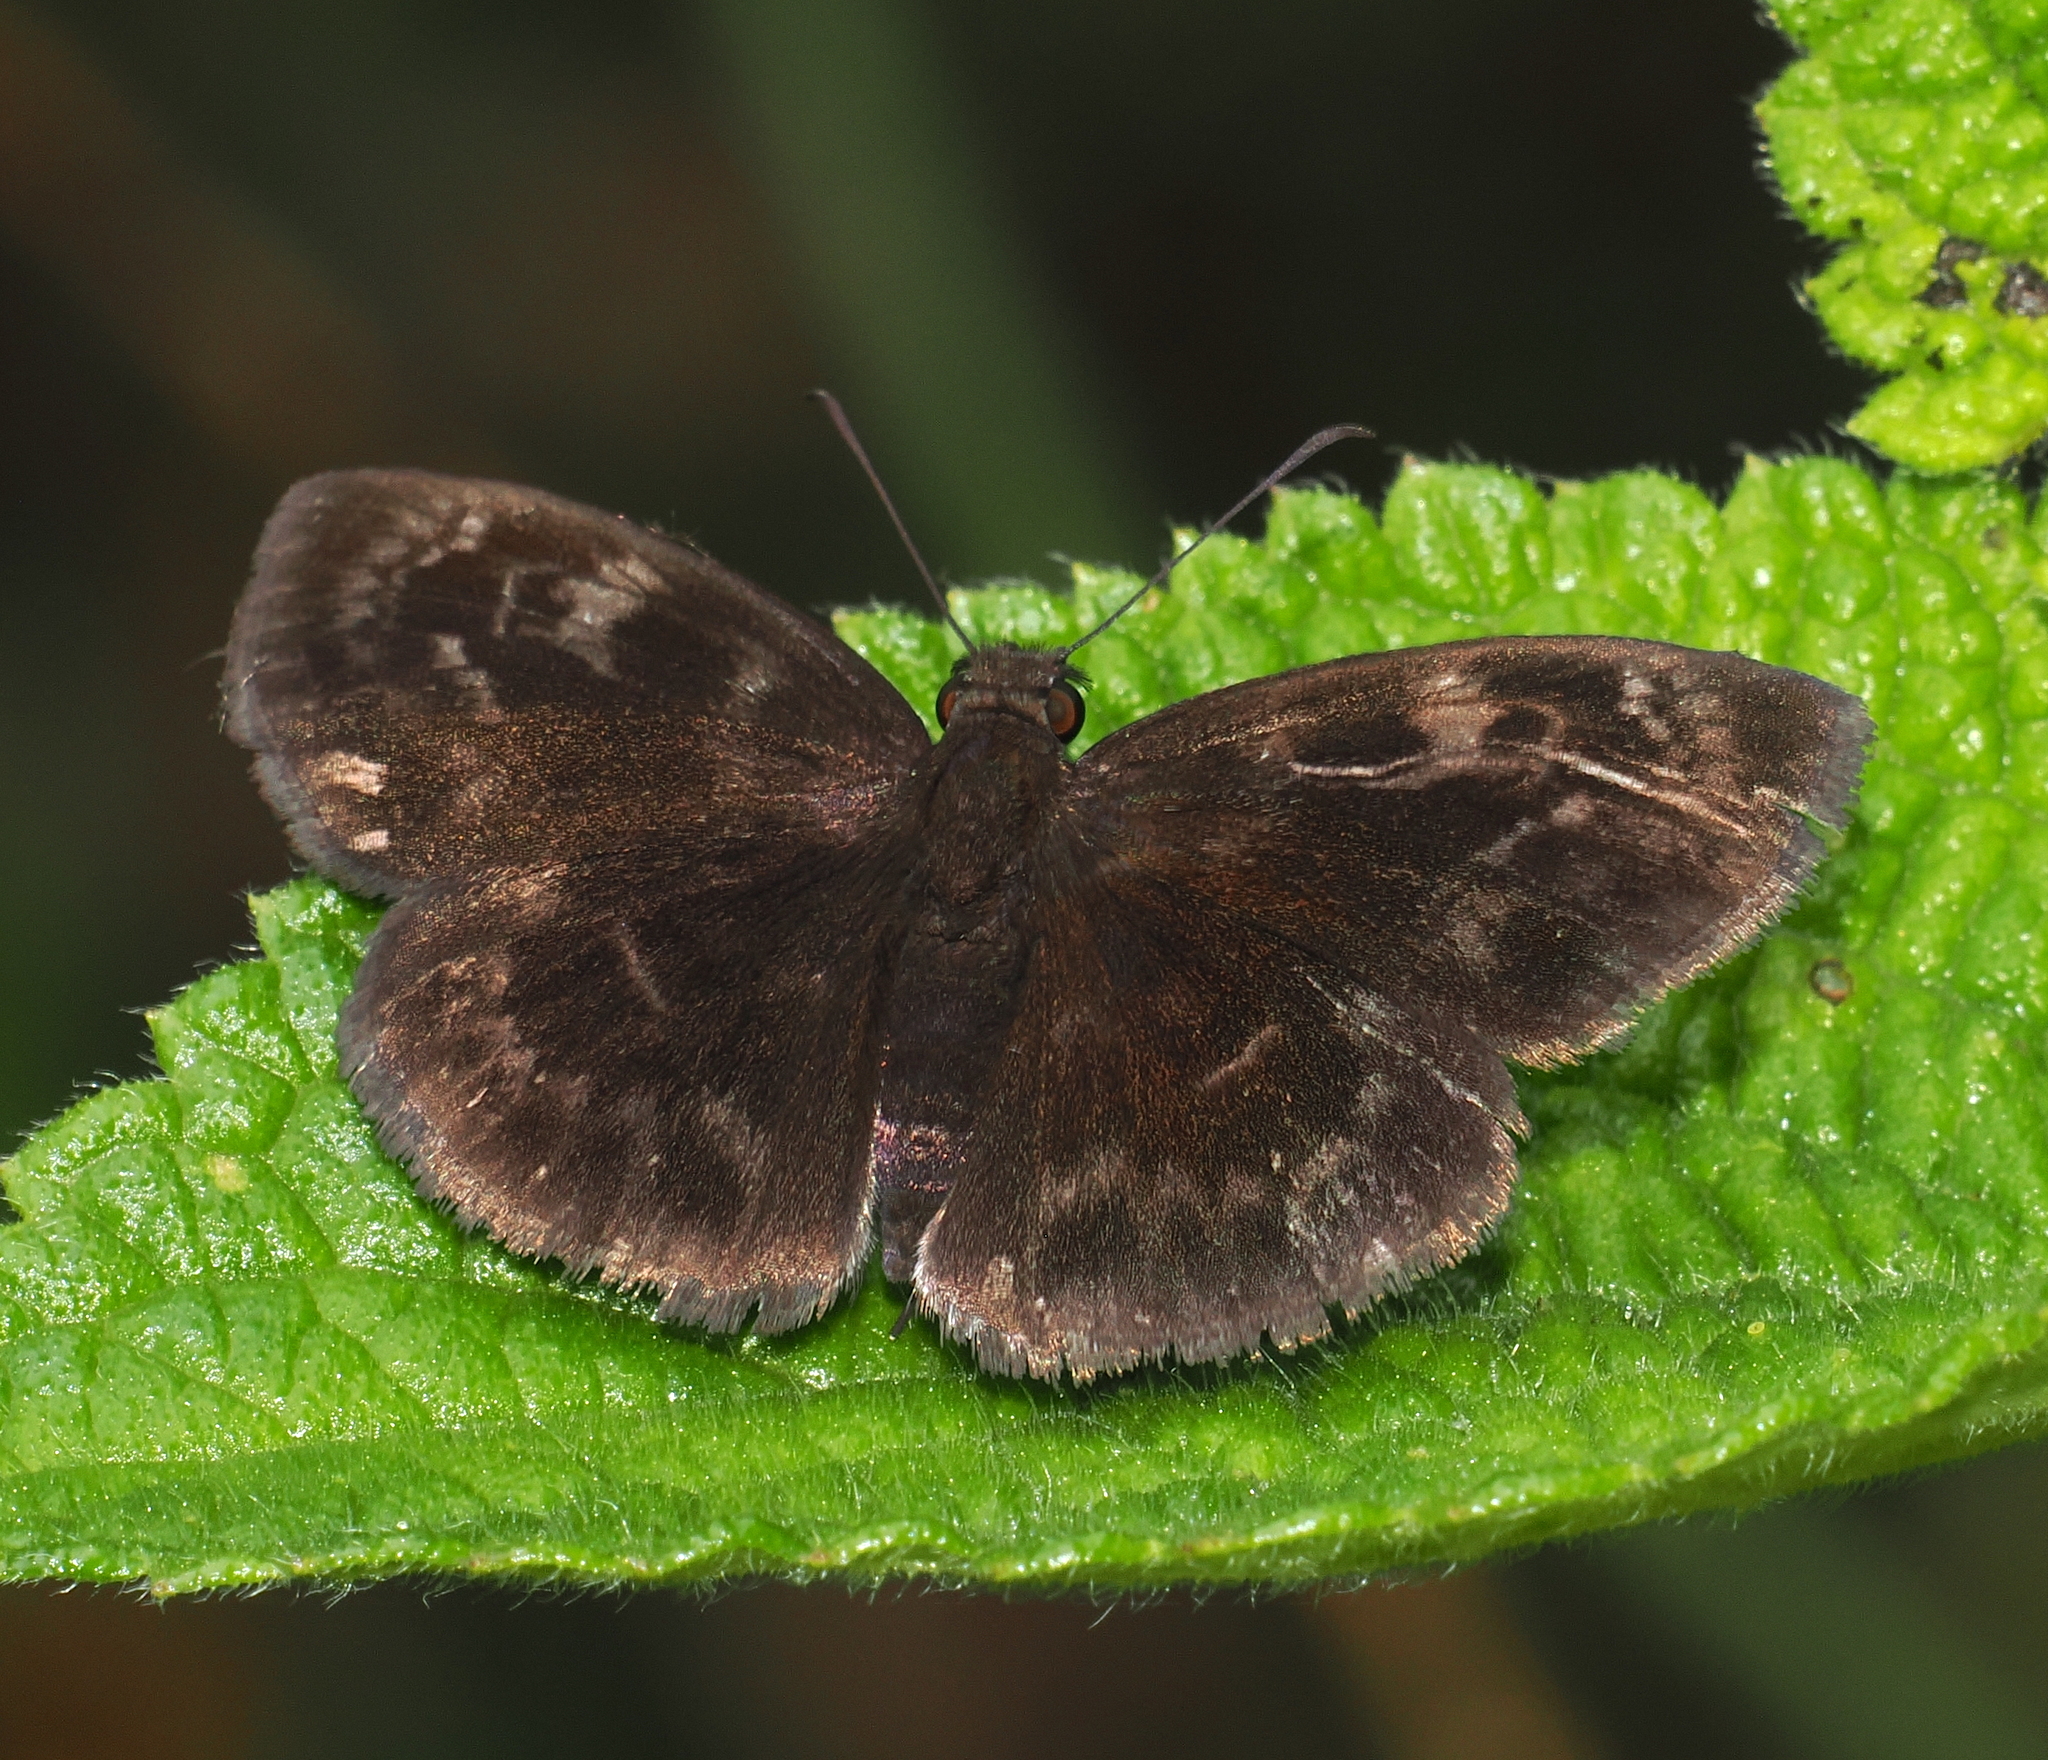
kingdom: Animalia
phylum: Arthropoda
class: Insecta
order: Lepidoptera
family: Hesperiidae
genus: Ouleus
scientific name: Ouleus fridericus
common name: Fridericus spreadwing
